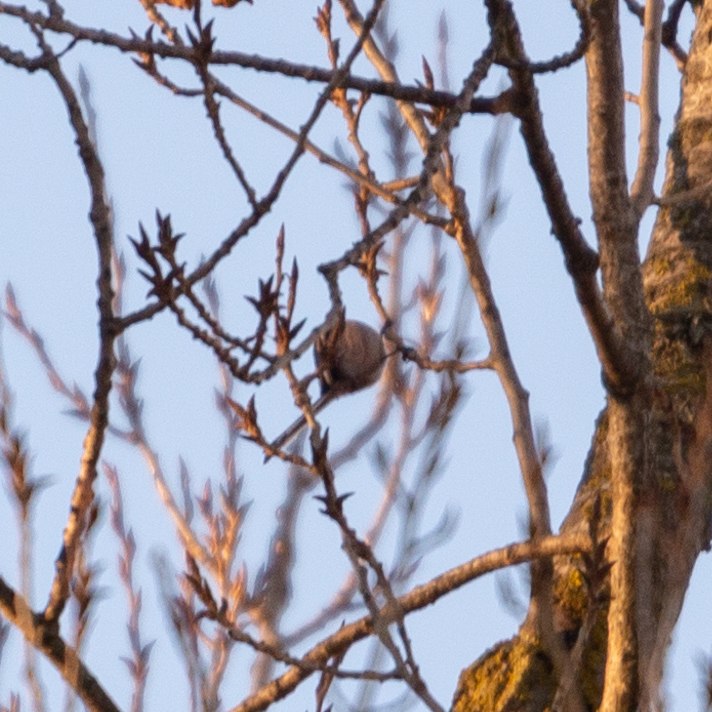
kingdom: Animalia
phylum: Chordata
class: Aves
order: Passeriformes
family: Aegithalidae
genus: Aegithalos
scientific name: Aegithalos caudatus
